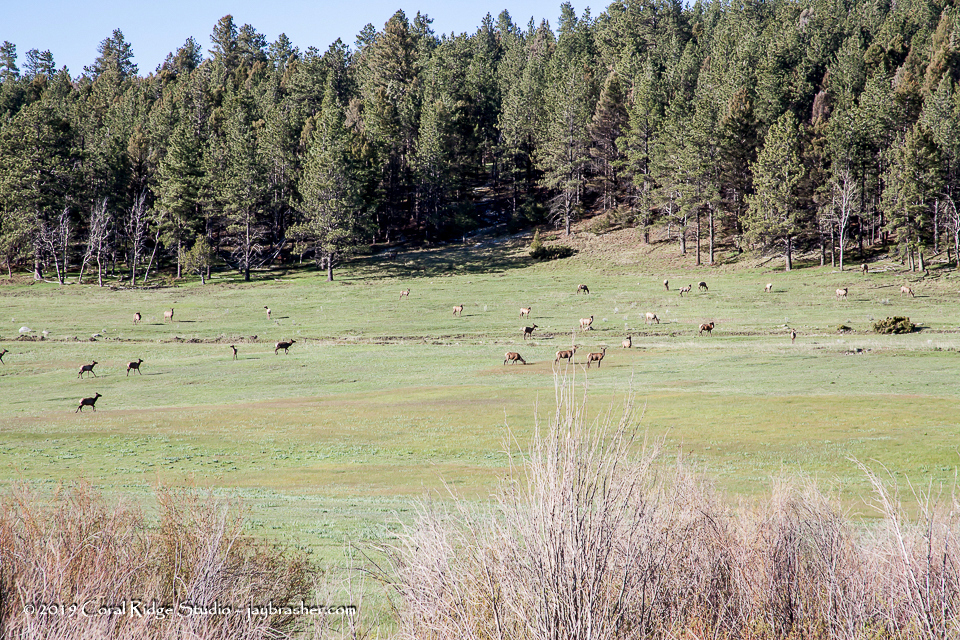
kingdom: Animalia
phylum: Chordata
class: Mammalia
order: Artiodactyla
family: Cervidae
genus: Cervus
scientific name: Cervus elaphus
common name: Red deer
